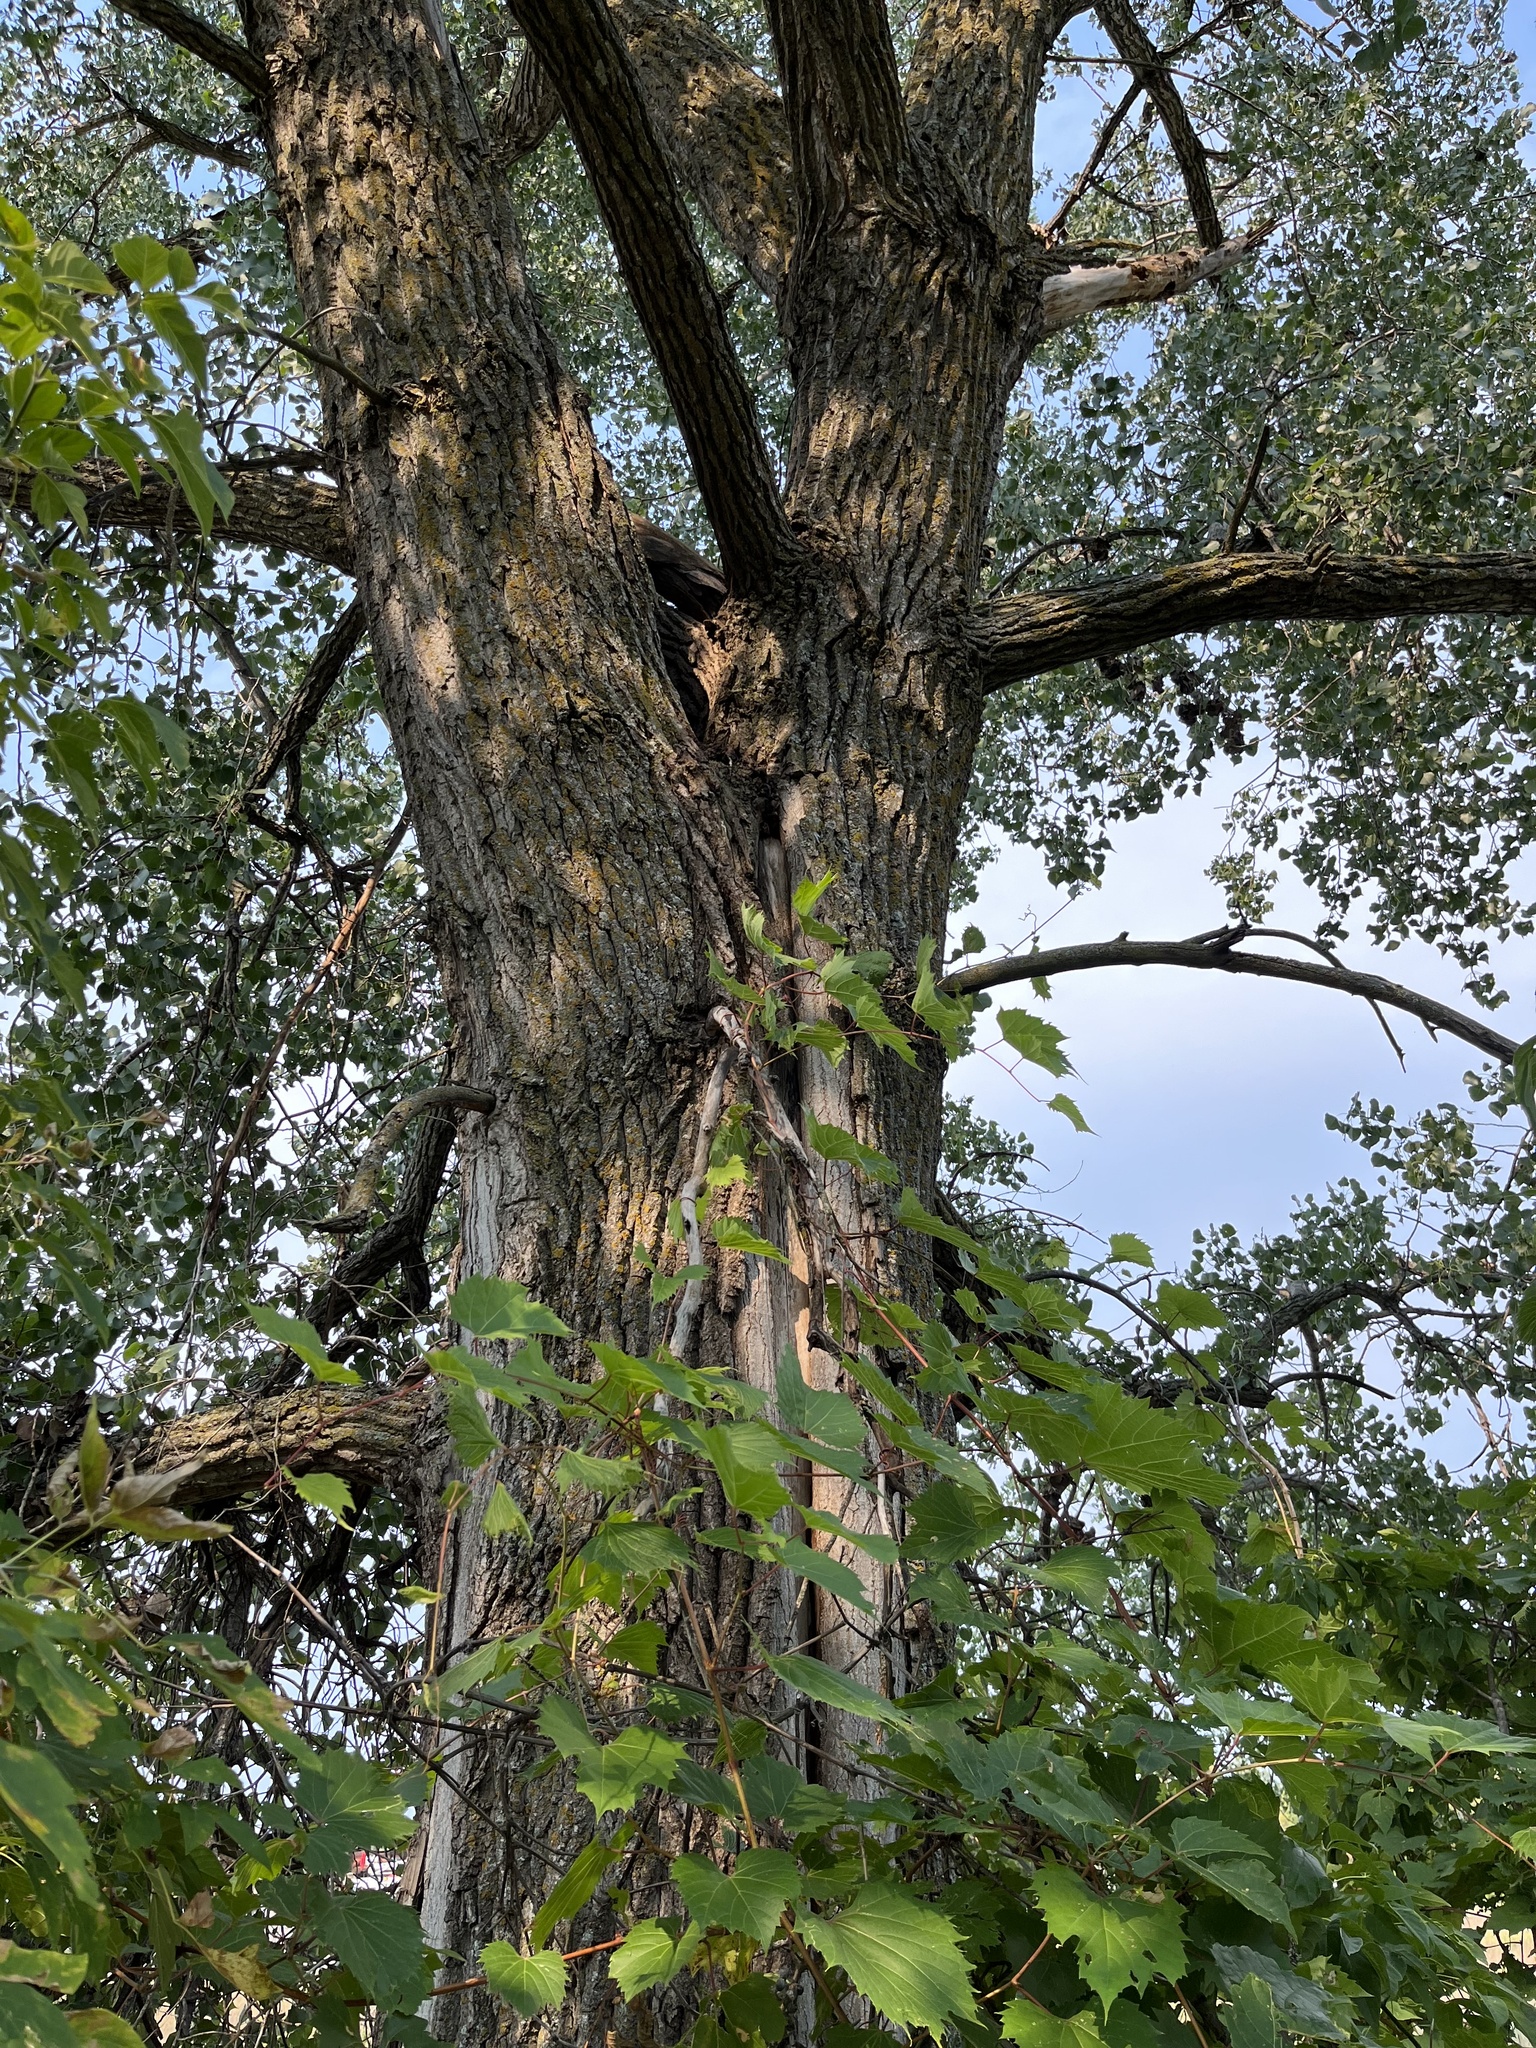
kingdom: Plantae
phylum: Tracheophyta
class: Magnoliopsida
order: Malpighiales
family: Salicaceae
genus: Populus
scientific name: Populus deltoides
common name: Eastern cottonwood
